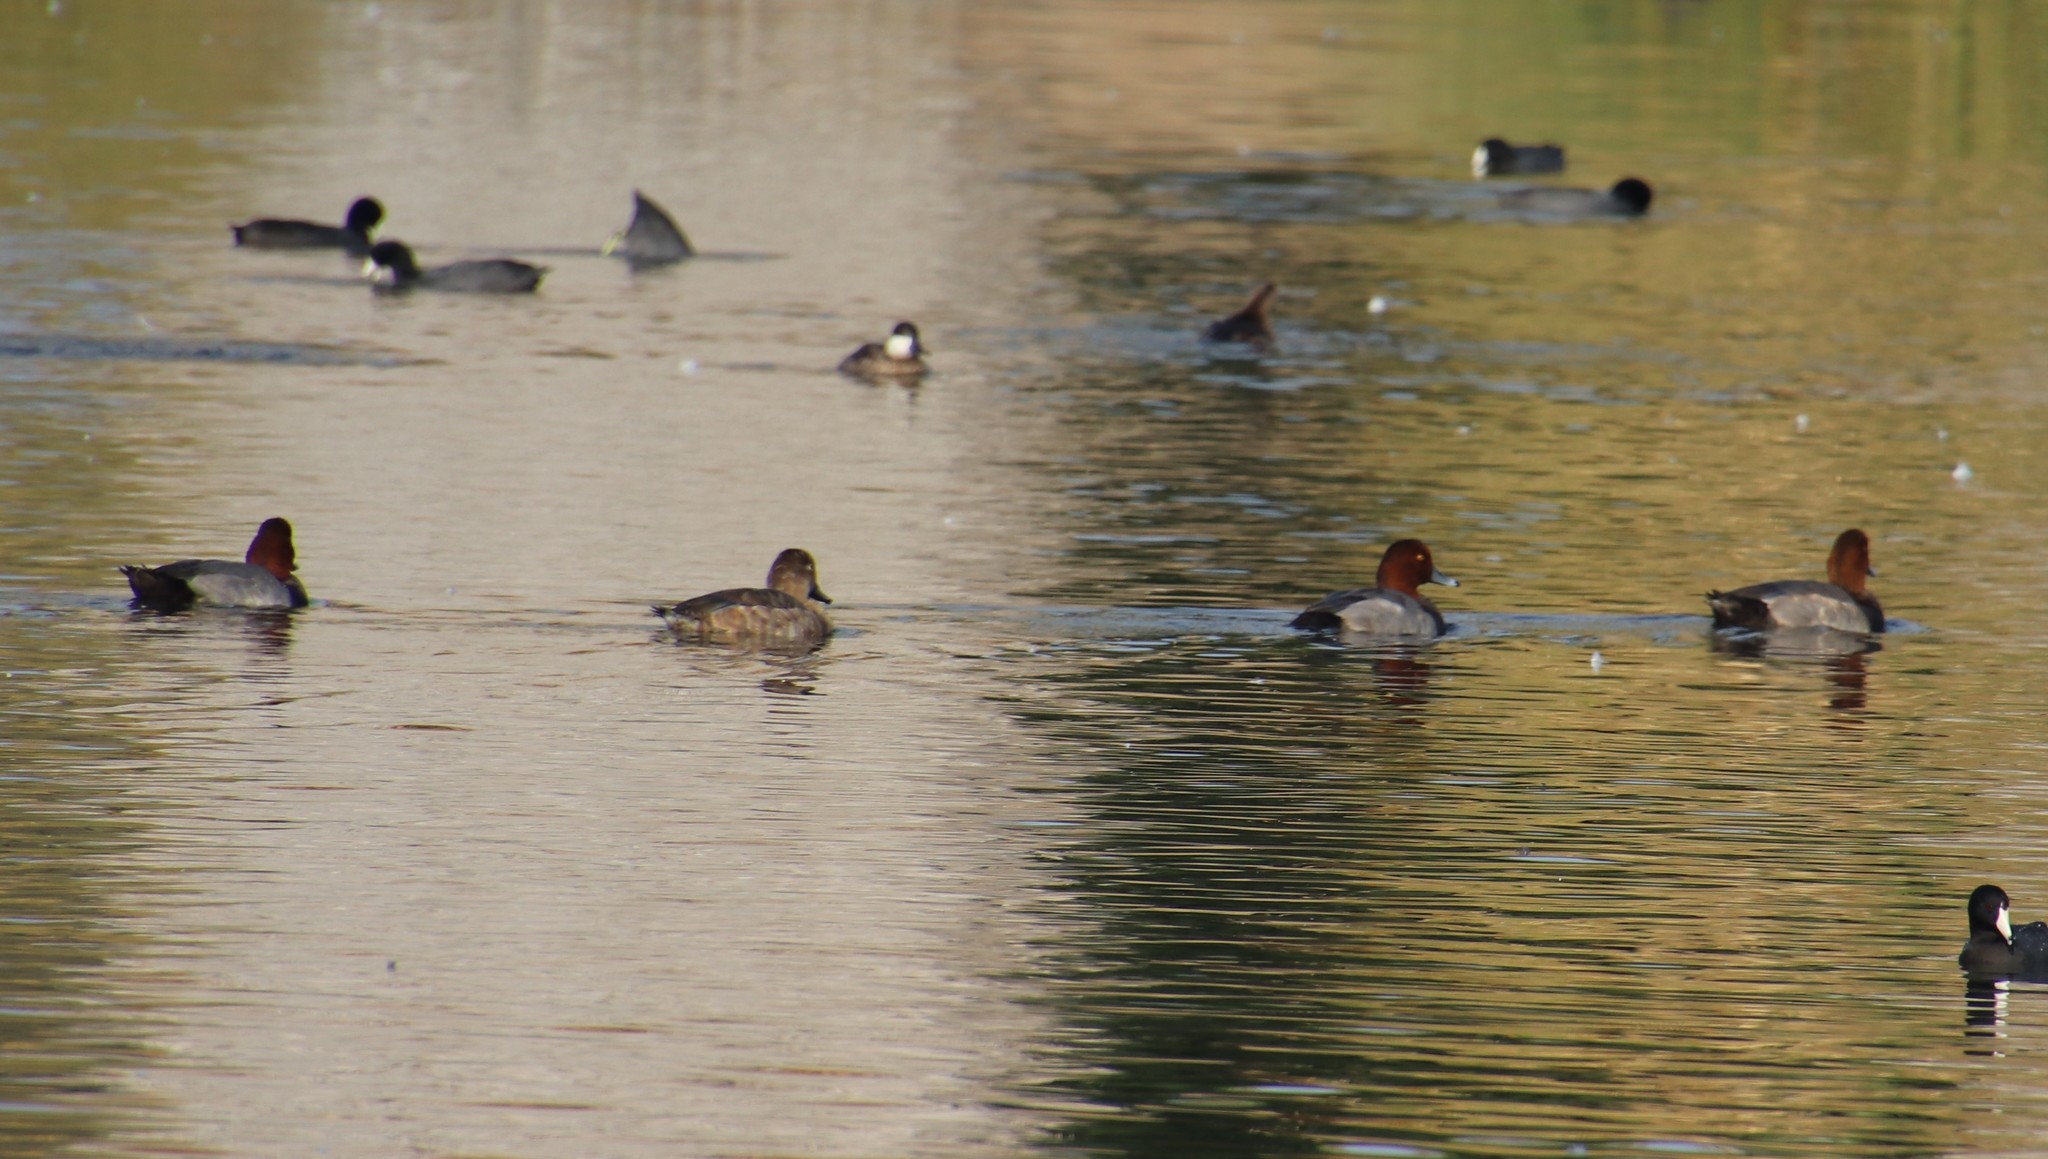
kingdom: Animalia
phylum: Chordata
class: Aves
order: Anseriformes
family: Anatidae
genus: Aythya
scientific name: Aythya americana
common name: Redhead
